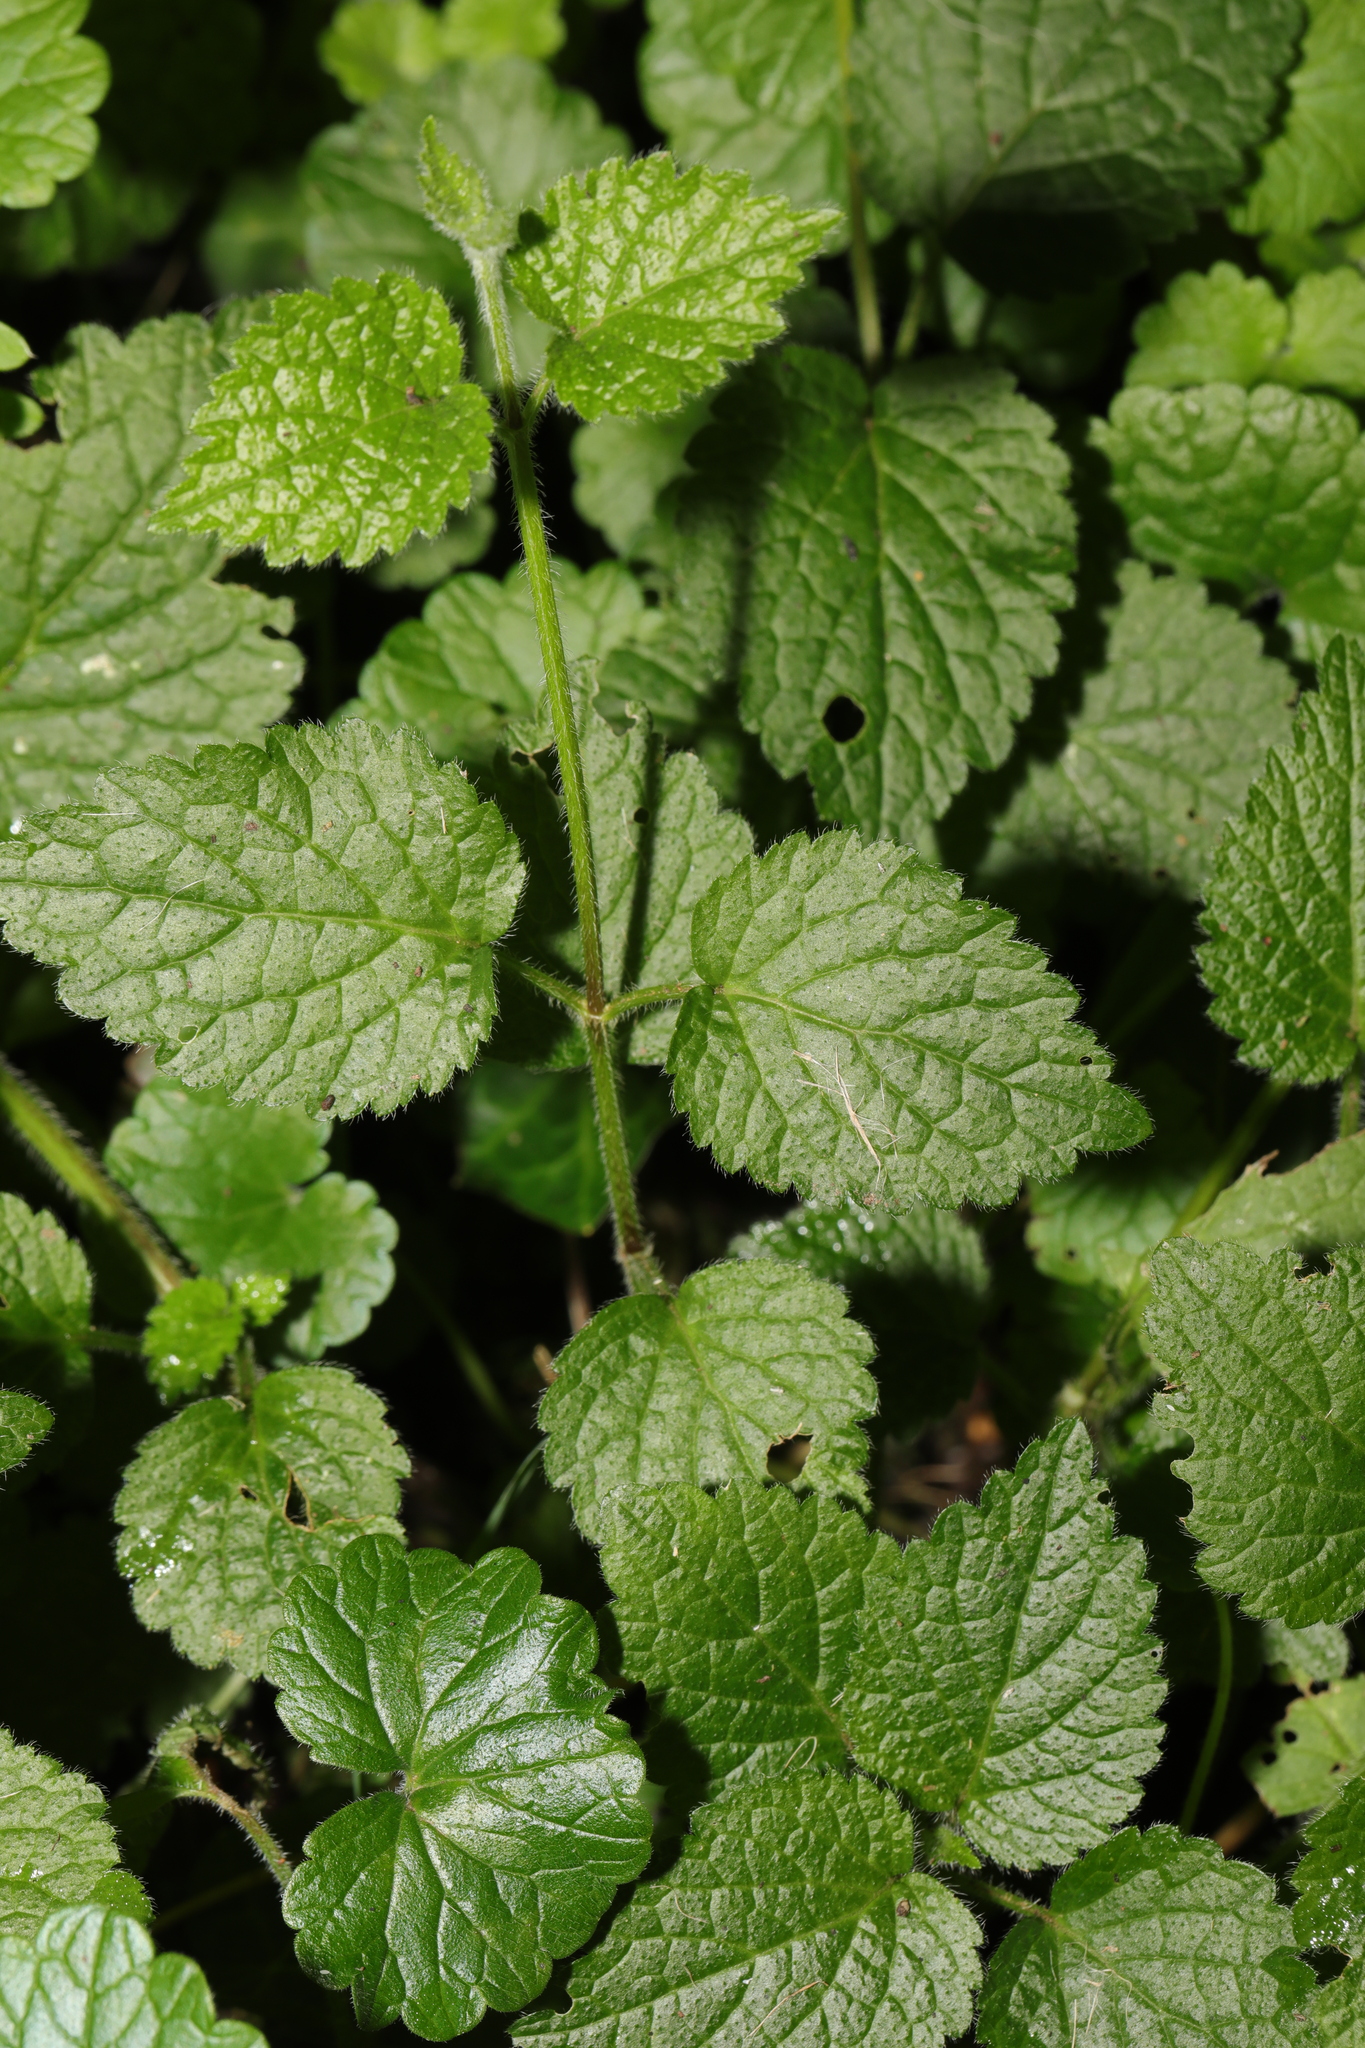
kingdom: Plantae
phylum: Tracheophyta
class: Magnoliopsida
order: Lamiales
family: Lamiaceae
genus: Lamium
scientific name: Lamium galeobdolon
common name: Yellow archangel
